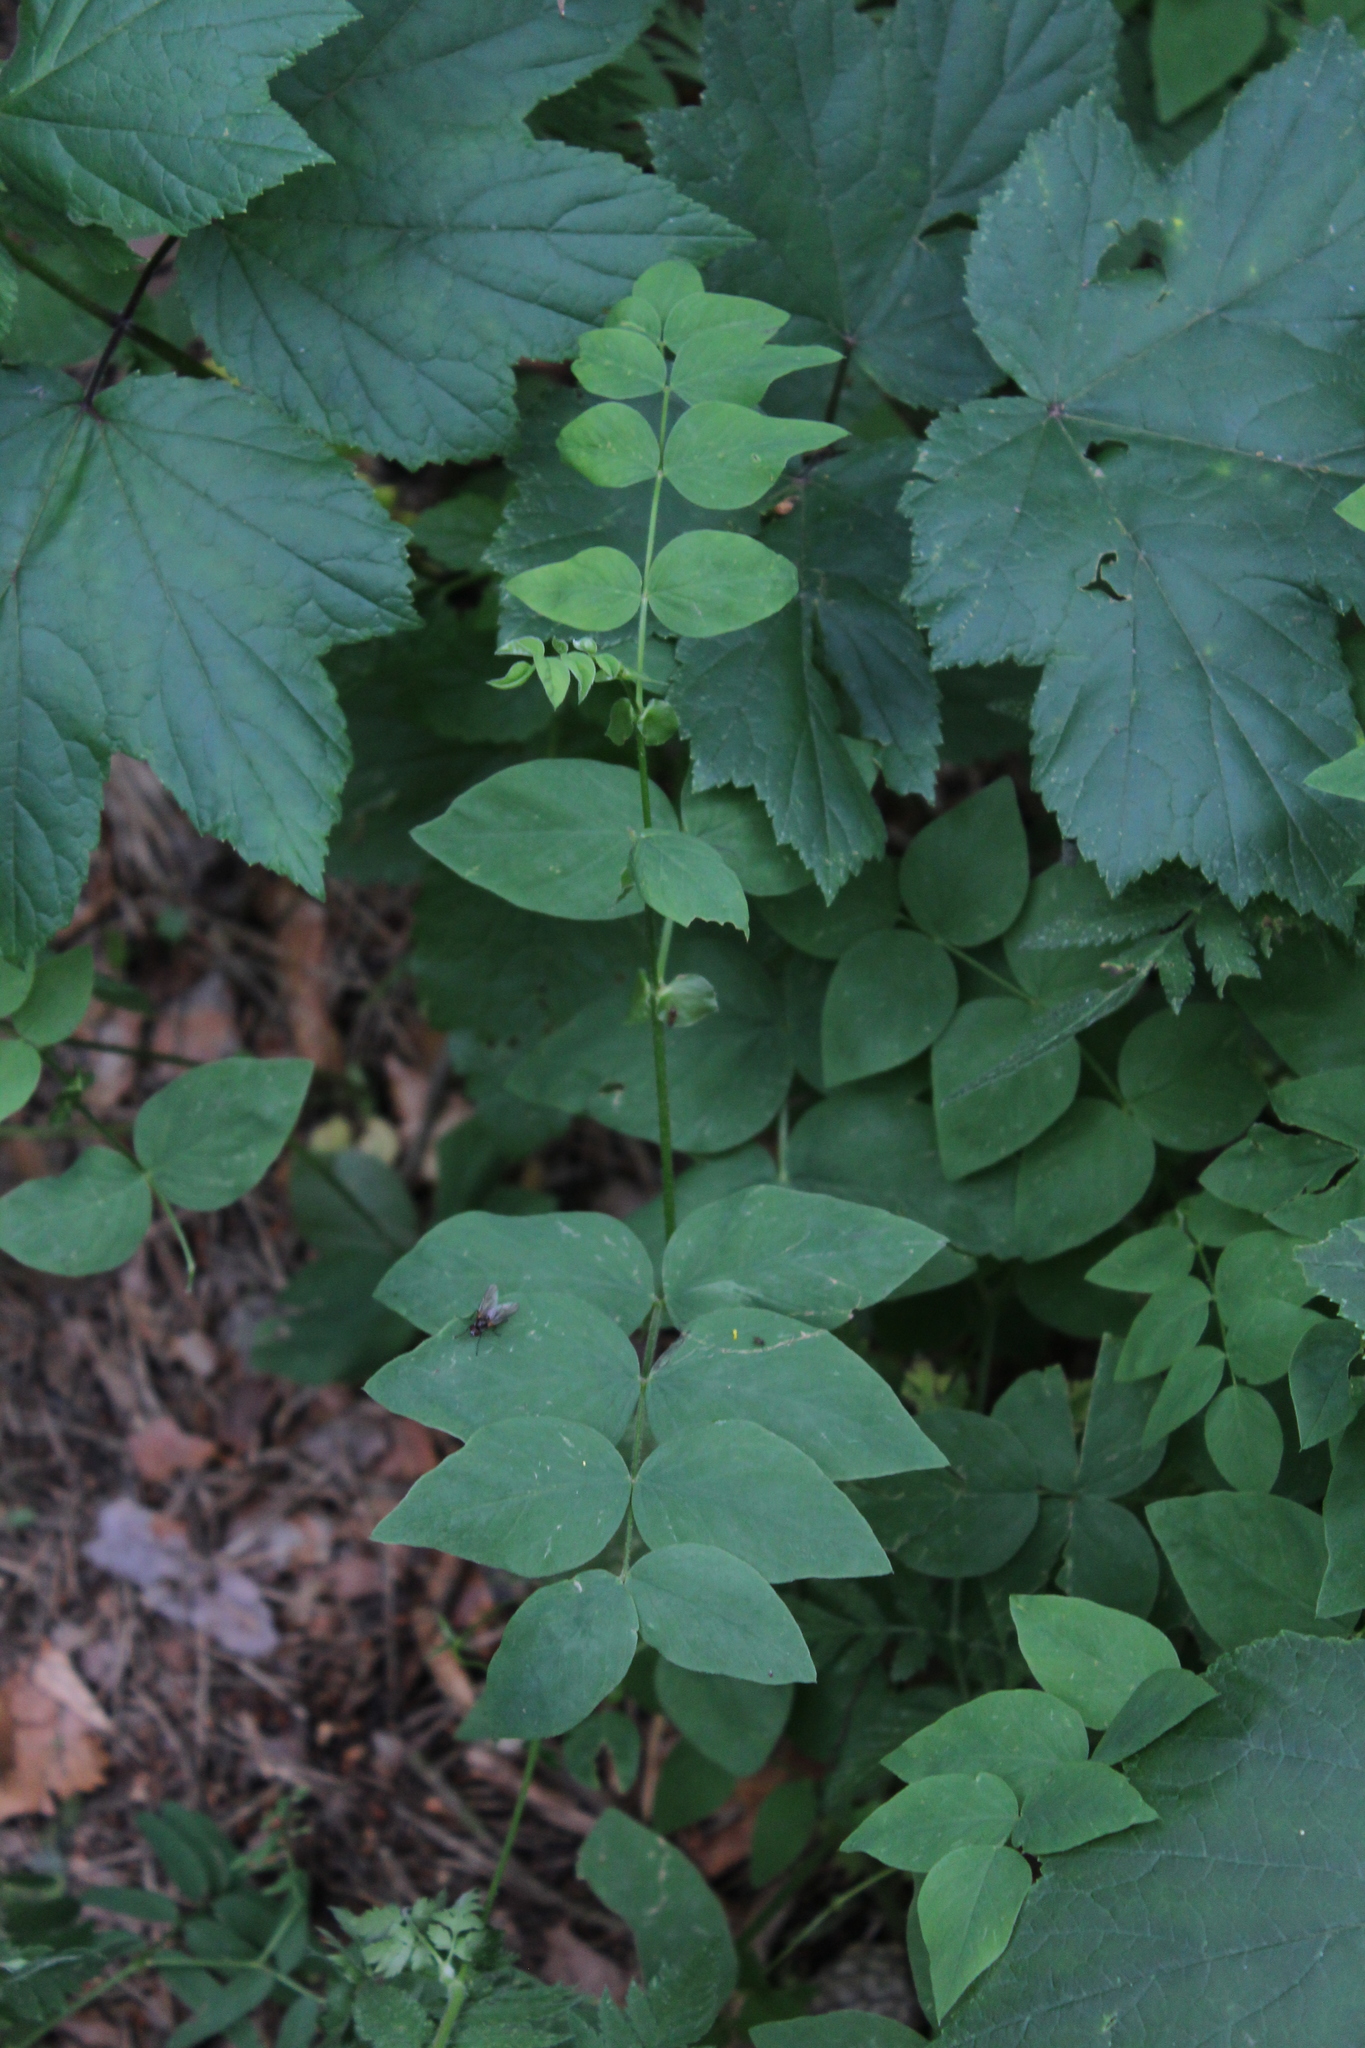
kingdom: Plantae
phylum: Tracheophyta
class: Magnoliopsida
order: Fabales
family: Fabaceae
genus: Galega
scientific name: Galega orientalis
